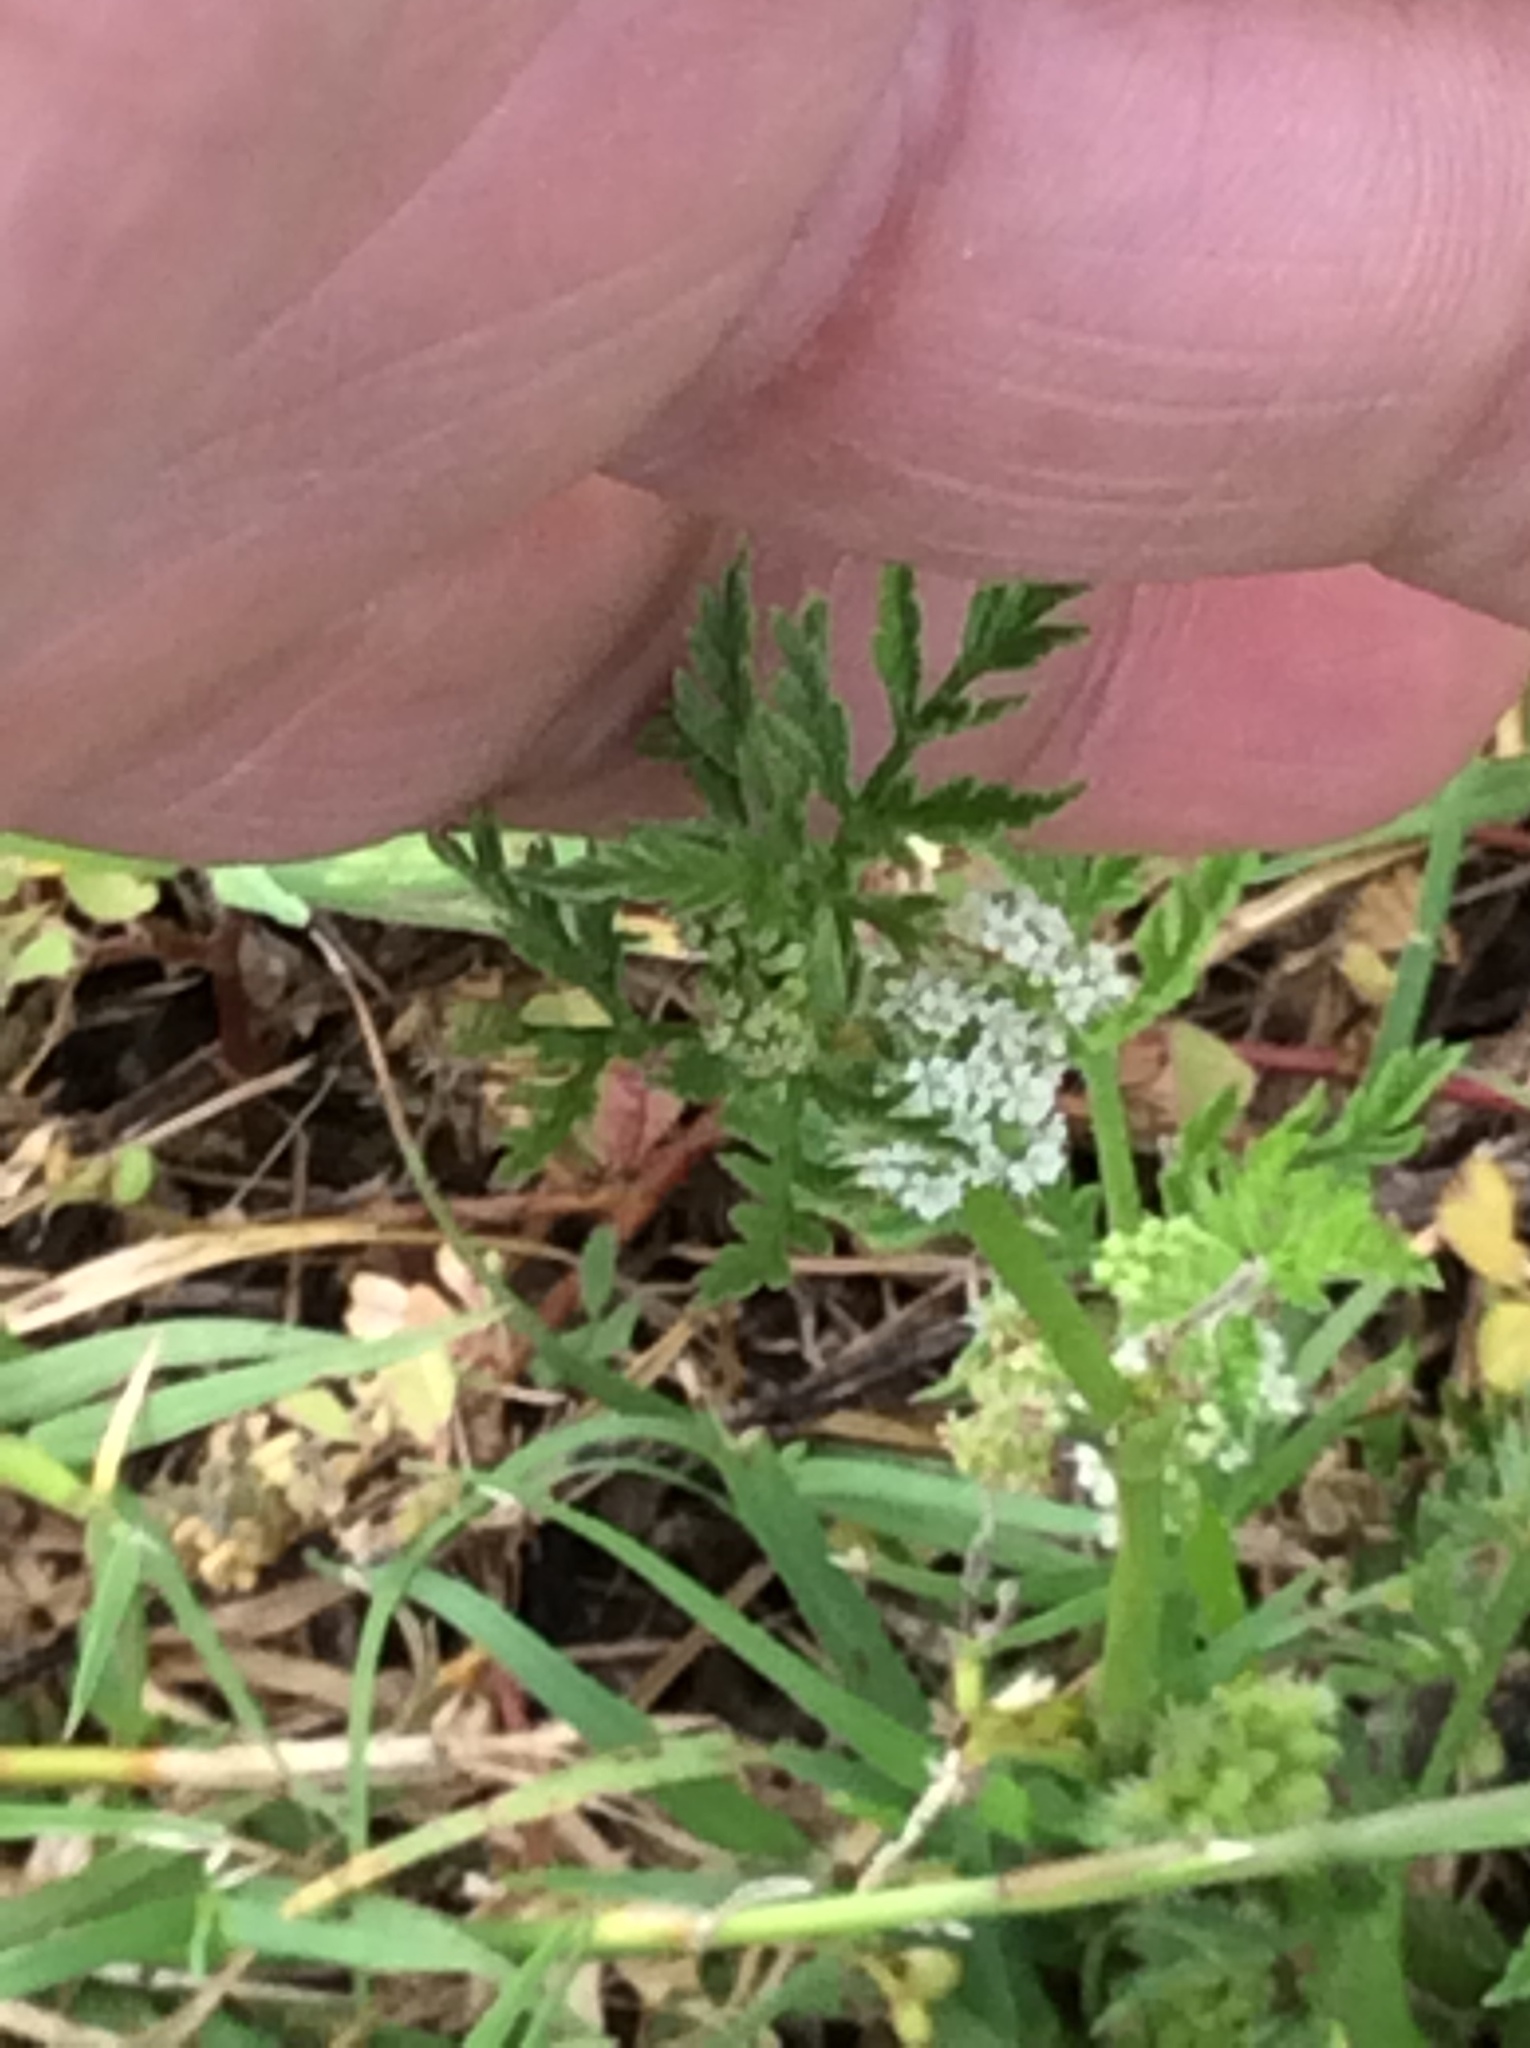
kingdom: Plantae
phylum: Tracheophyta
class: Magnoliopsida
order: Apiales
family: Apiaceae
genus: Torilis
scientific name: Torilis nodosa
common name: Knotted hedge-parsley
